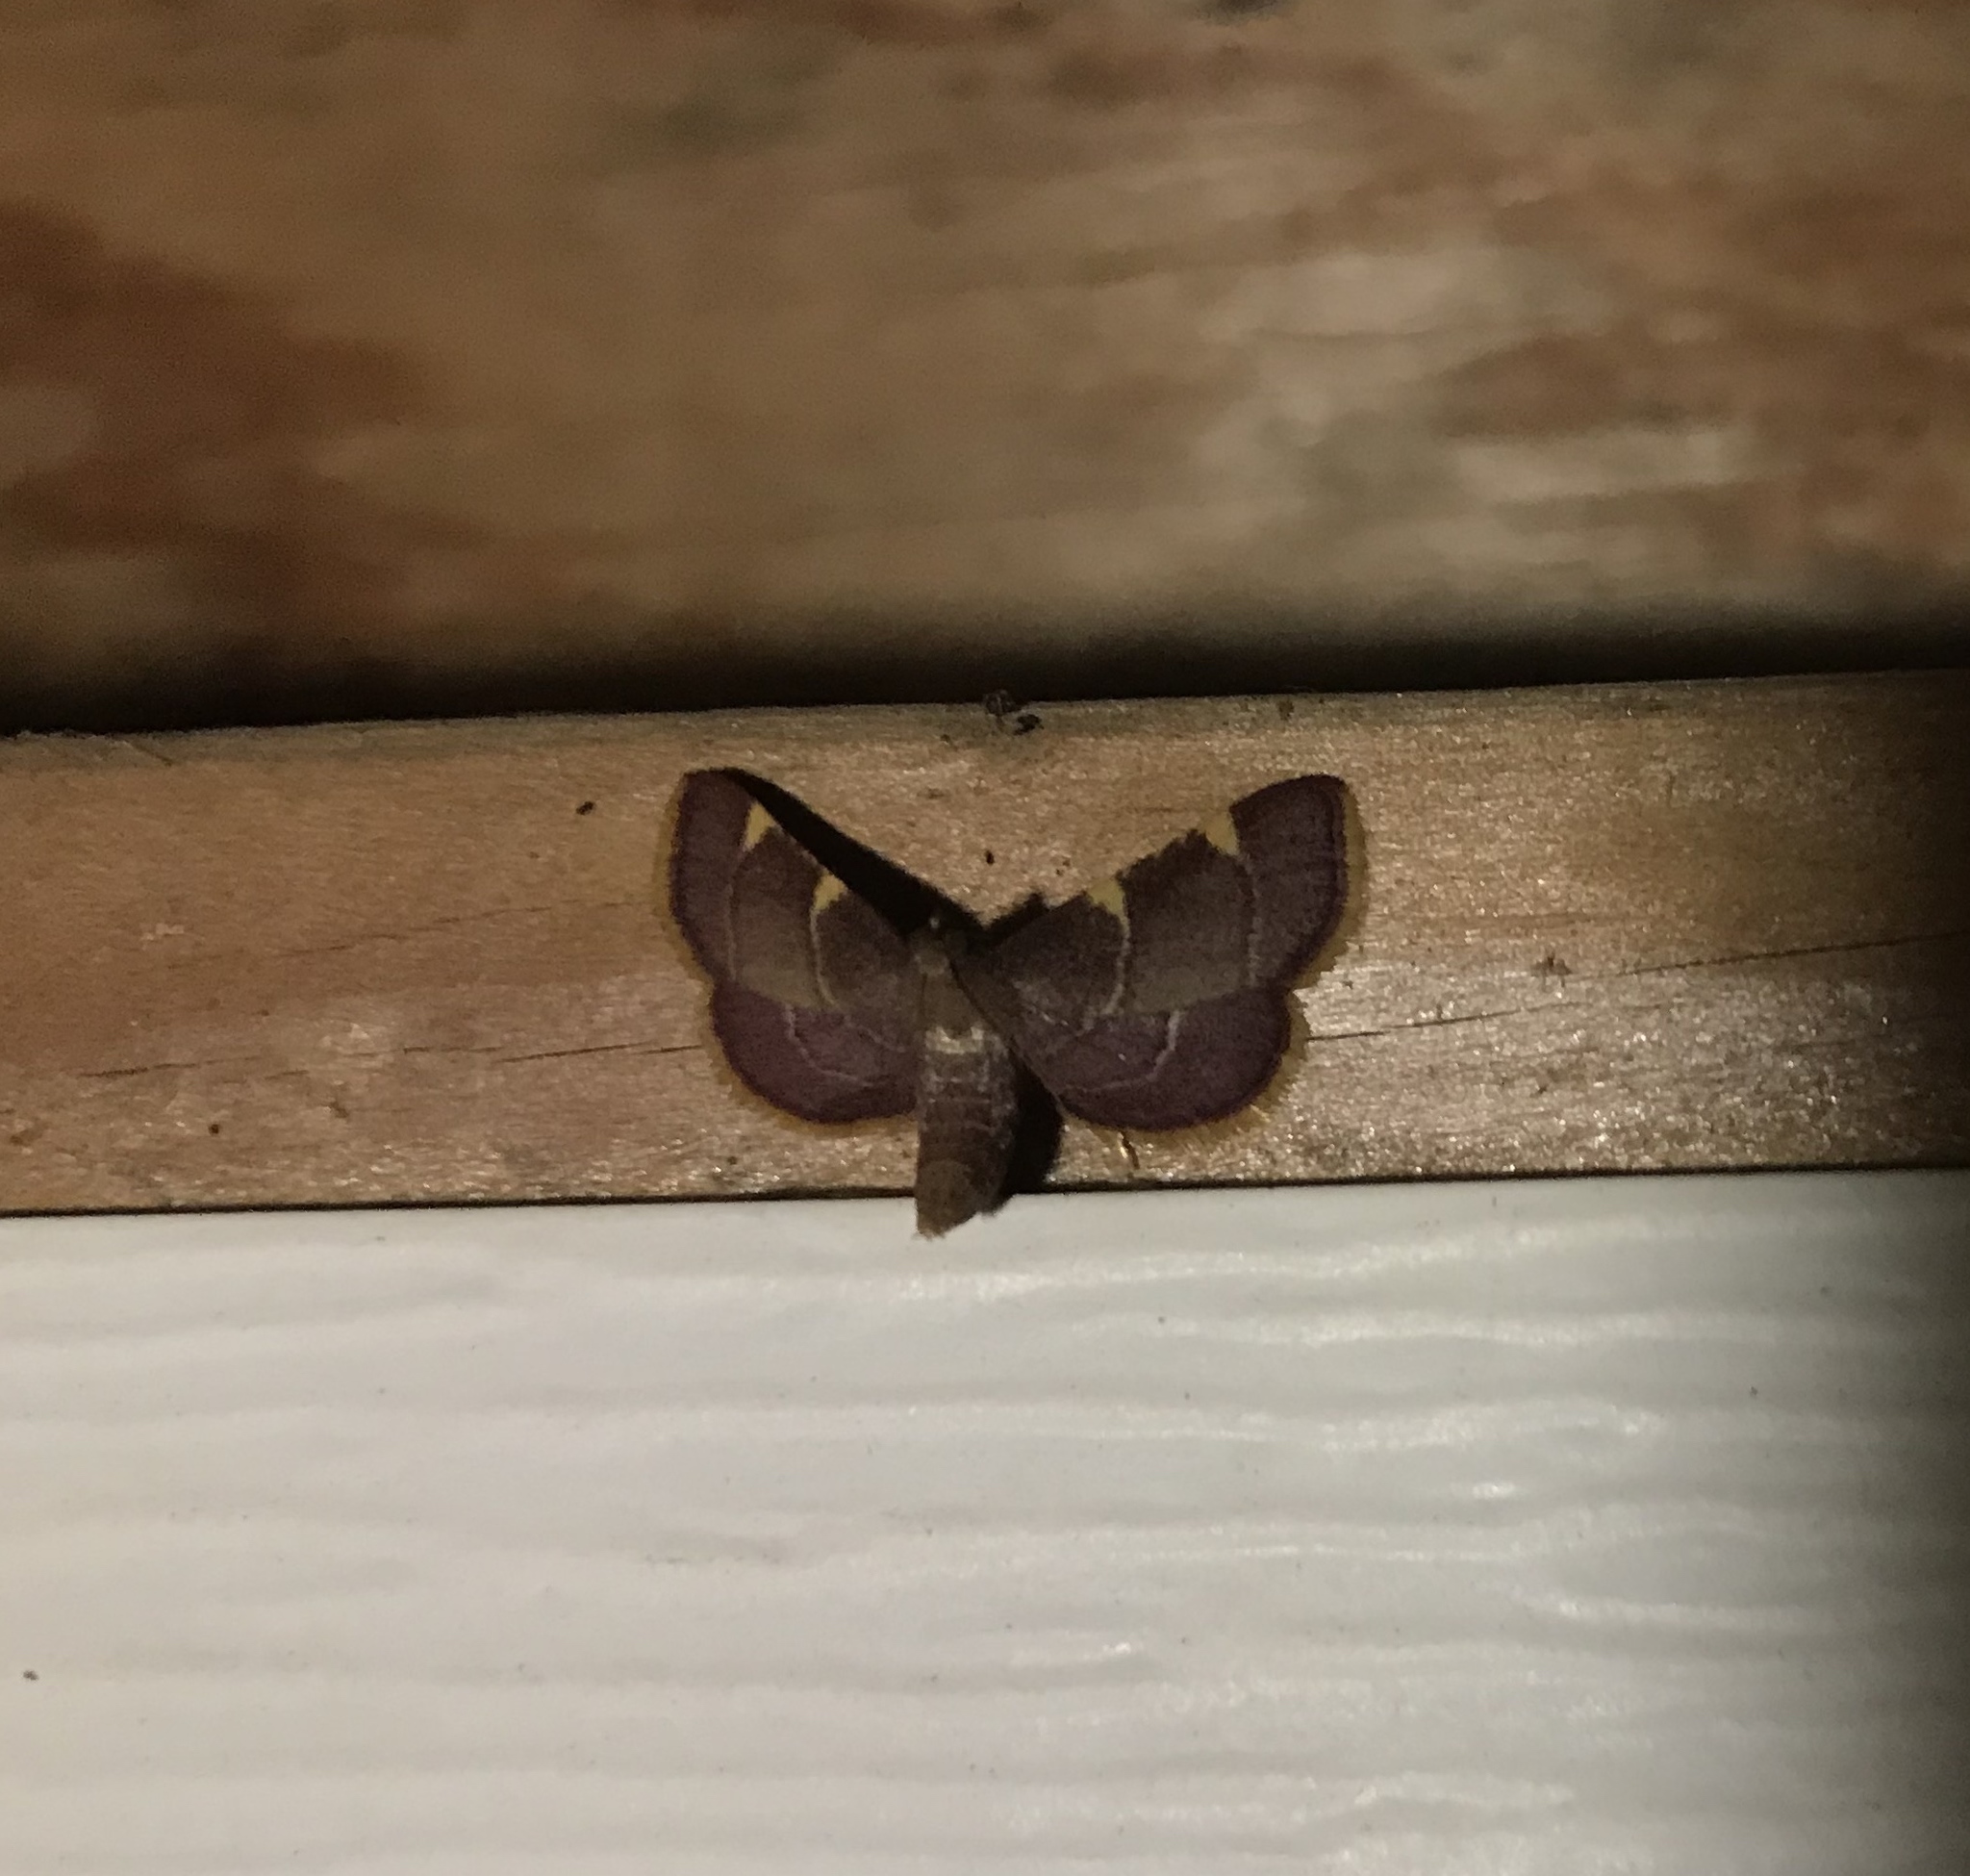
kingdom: Animalia
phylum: Arthropoda
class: Insecta
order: Lepidoptera
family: Pyralidae
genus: Hypsopygia
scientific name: Hypsopygia olinalis
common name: Yellow-fringed dolichomia moth
